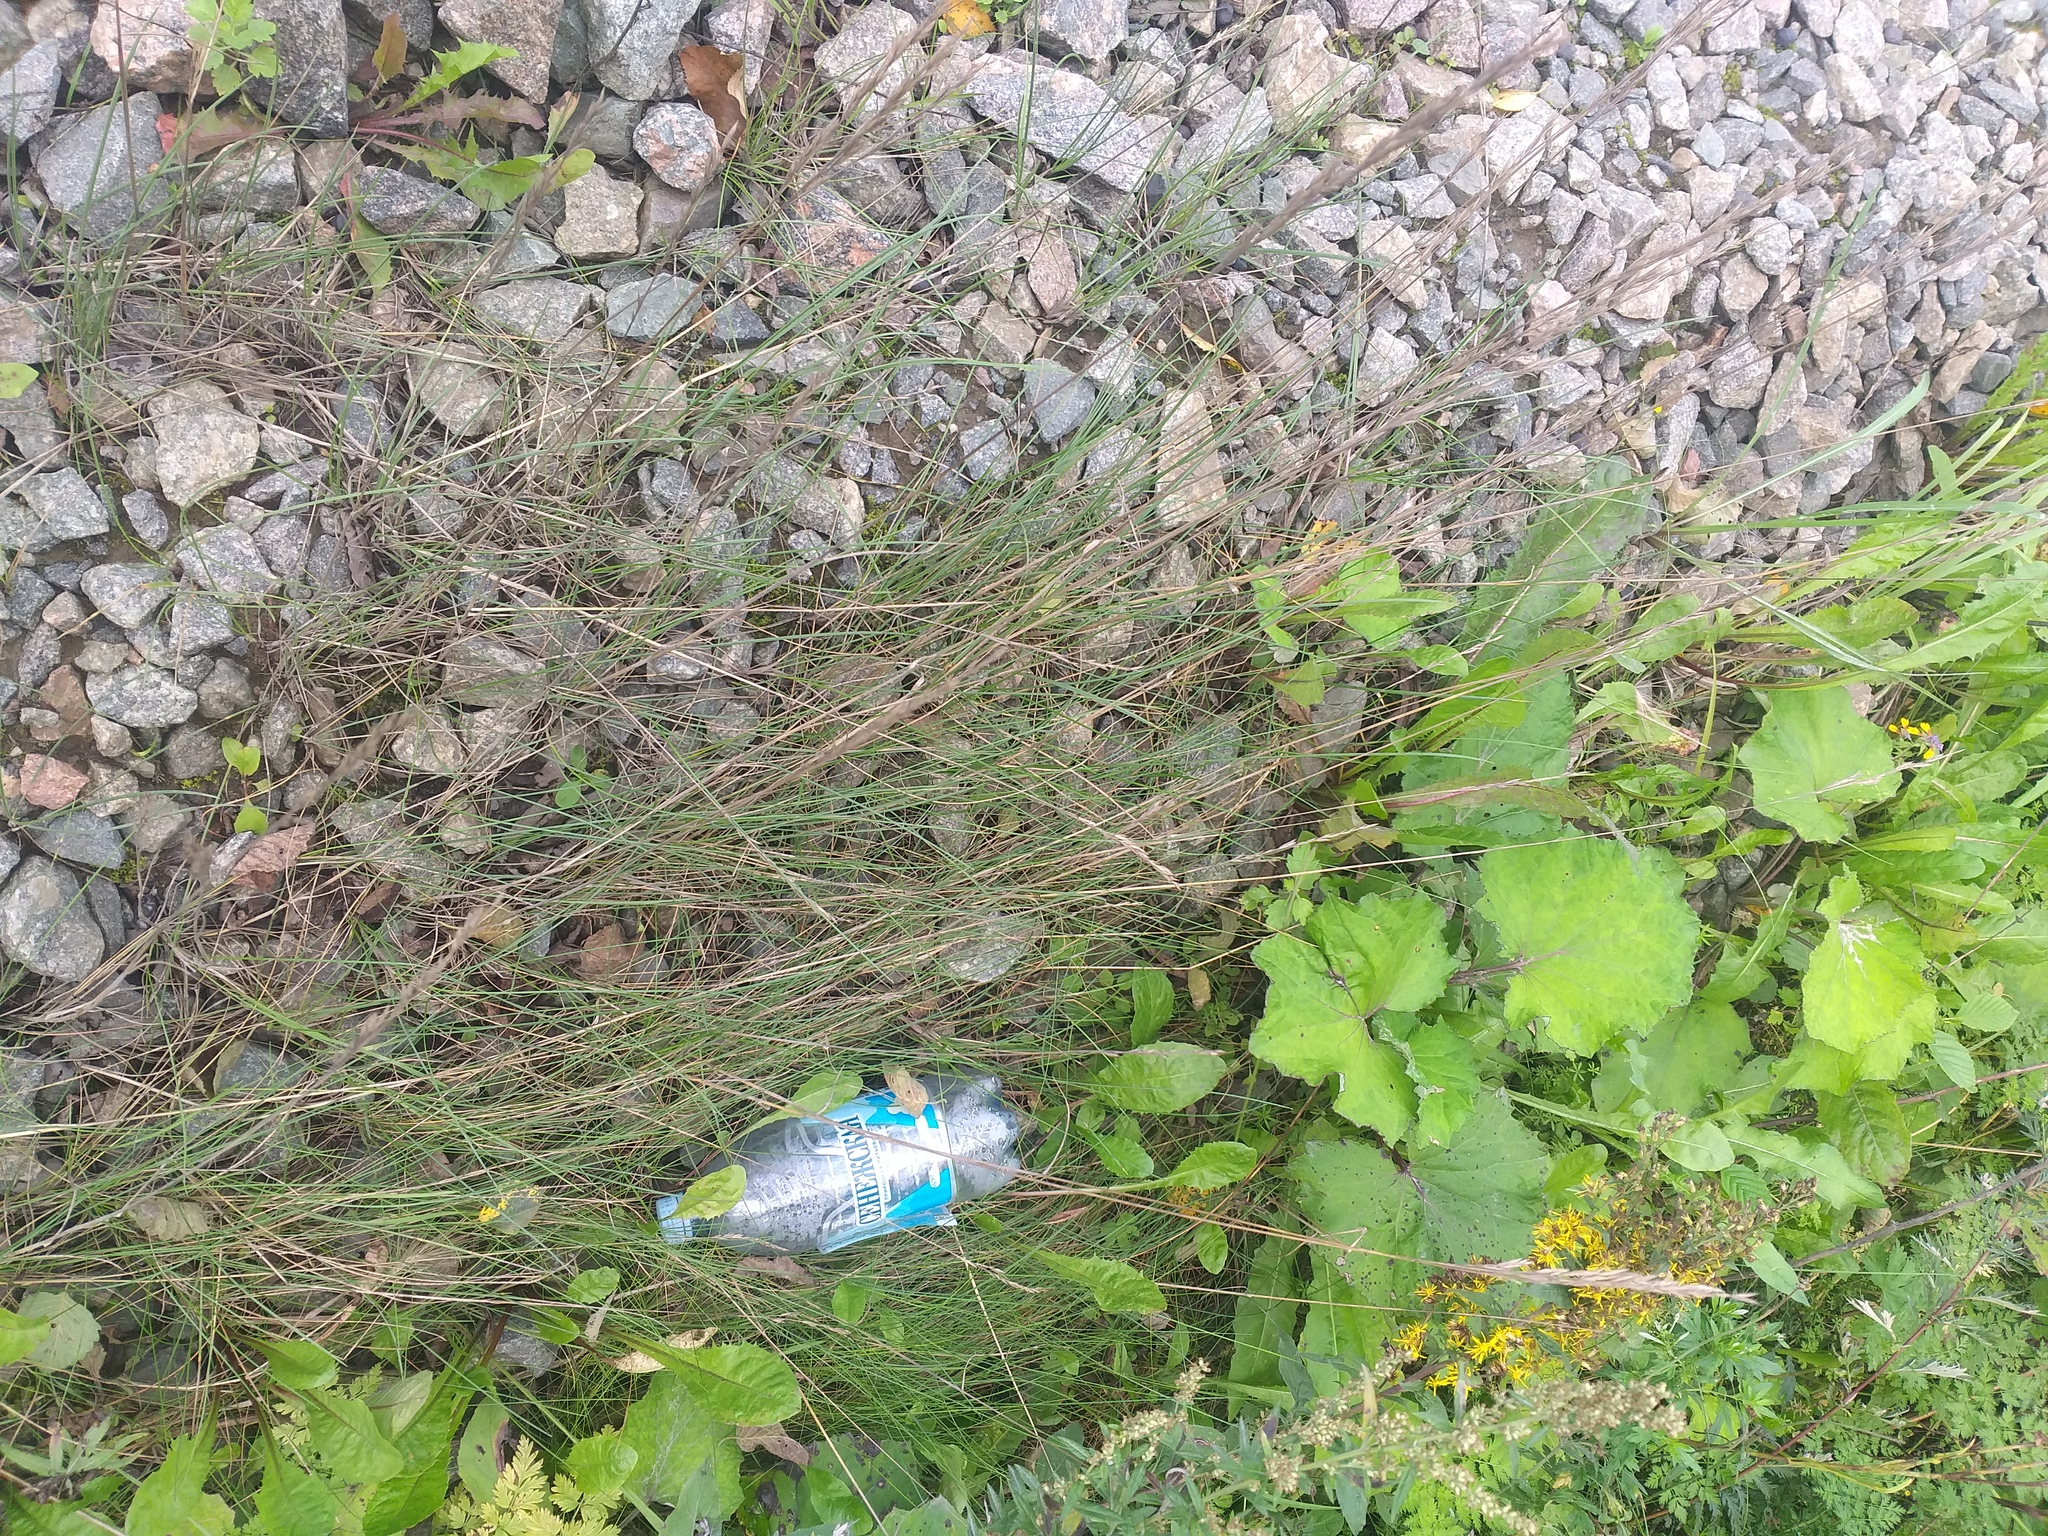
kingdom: Plantae
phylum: Tracheophyta
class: Liliopsida
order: Poales
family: Poaceae
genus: Festuca
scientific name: Festuca rubra
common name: Red fescue
